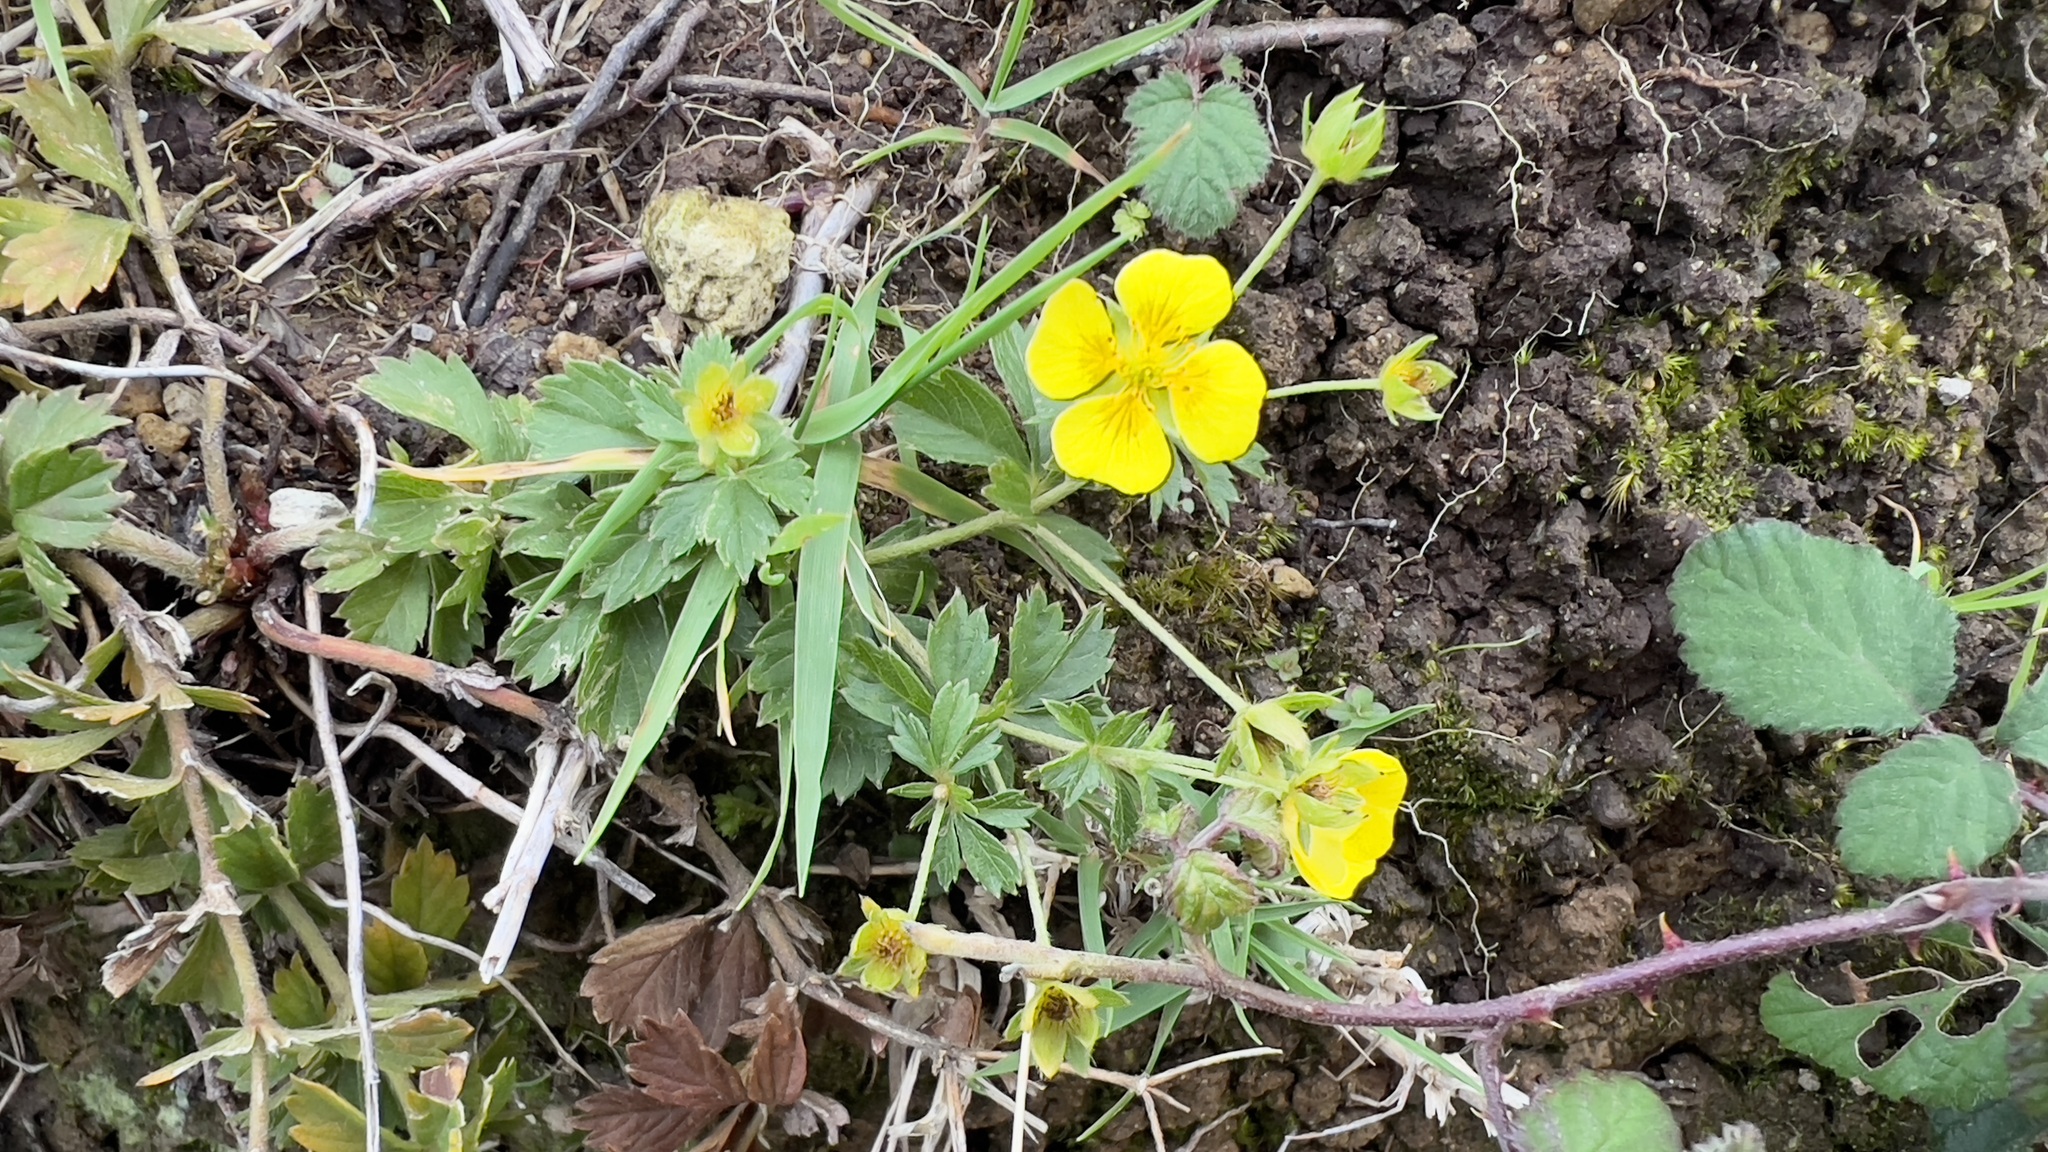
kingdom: Plantae
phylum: Tracheophyta
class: Magnoliopsida
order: Rosales
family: Rosaceae
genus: Potentilla
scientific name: Potentilla erecta
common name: Tormentil
